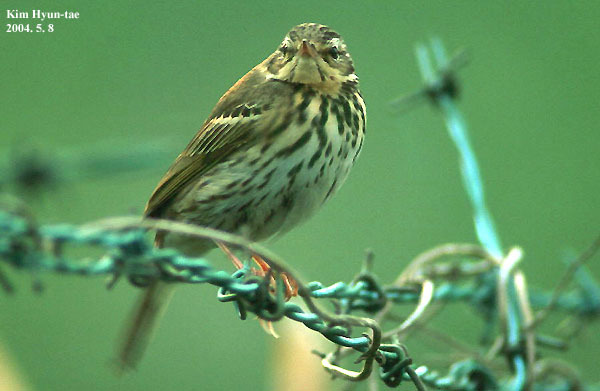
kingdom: Animalia
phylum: Chordata
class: Aves
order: Passeriformes
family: Motacillidae
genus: Anthus
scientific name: Anthus hodgsoni
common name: Olive-backed pipit
